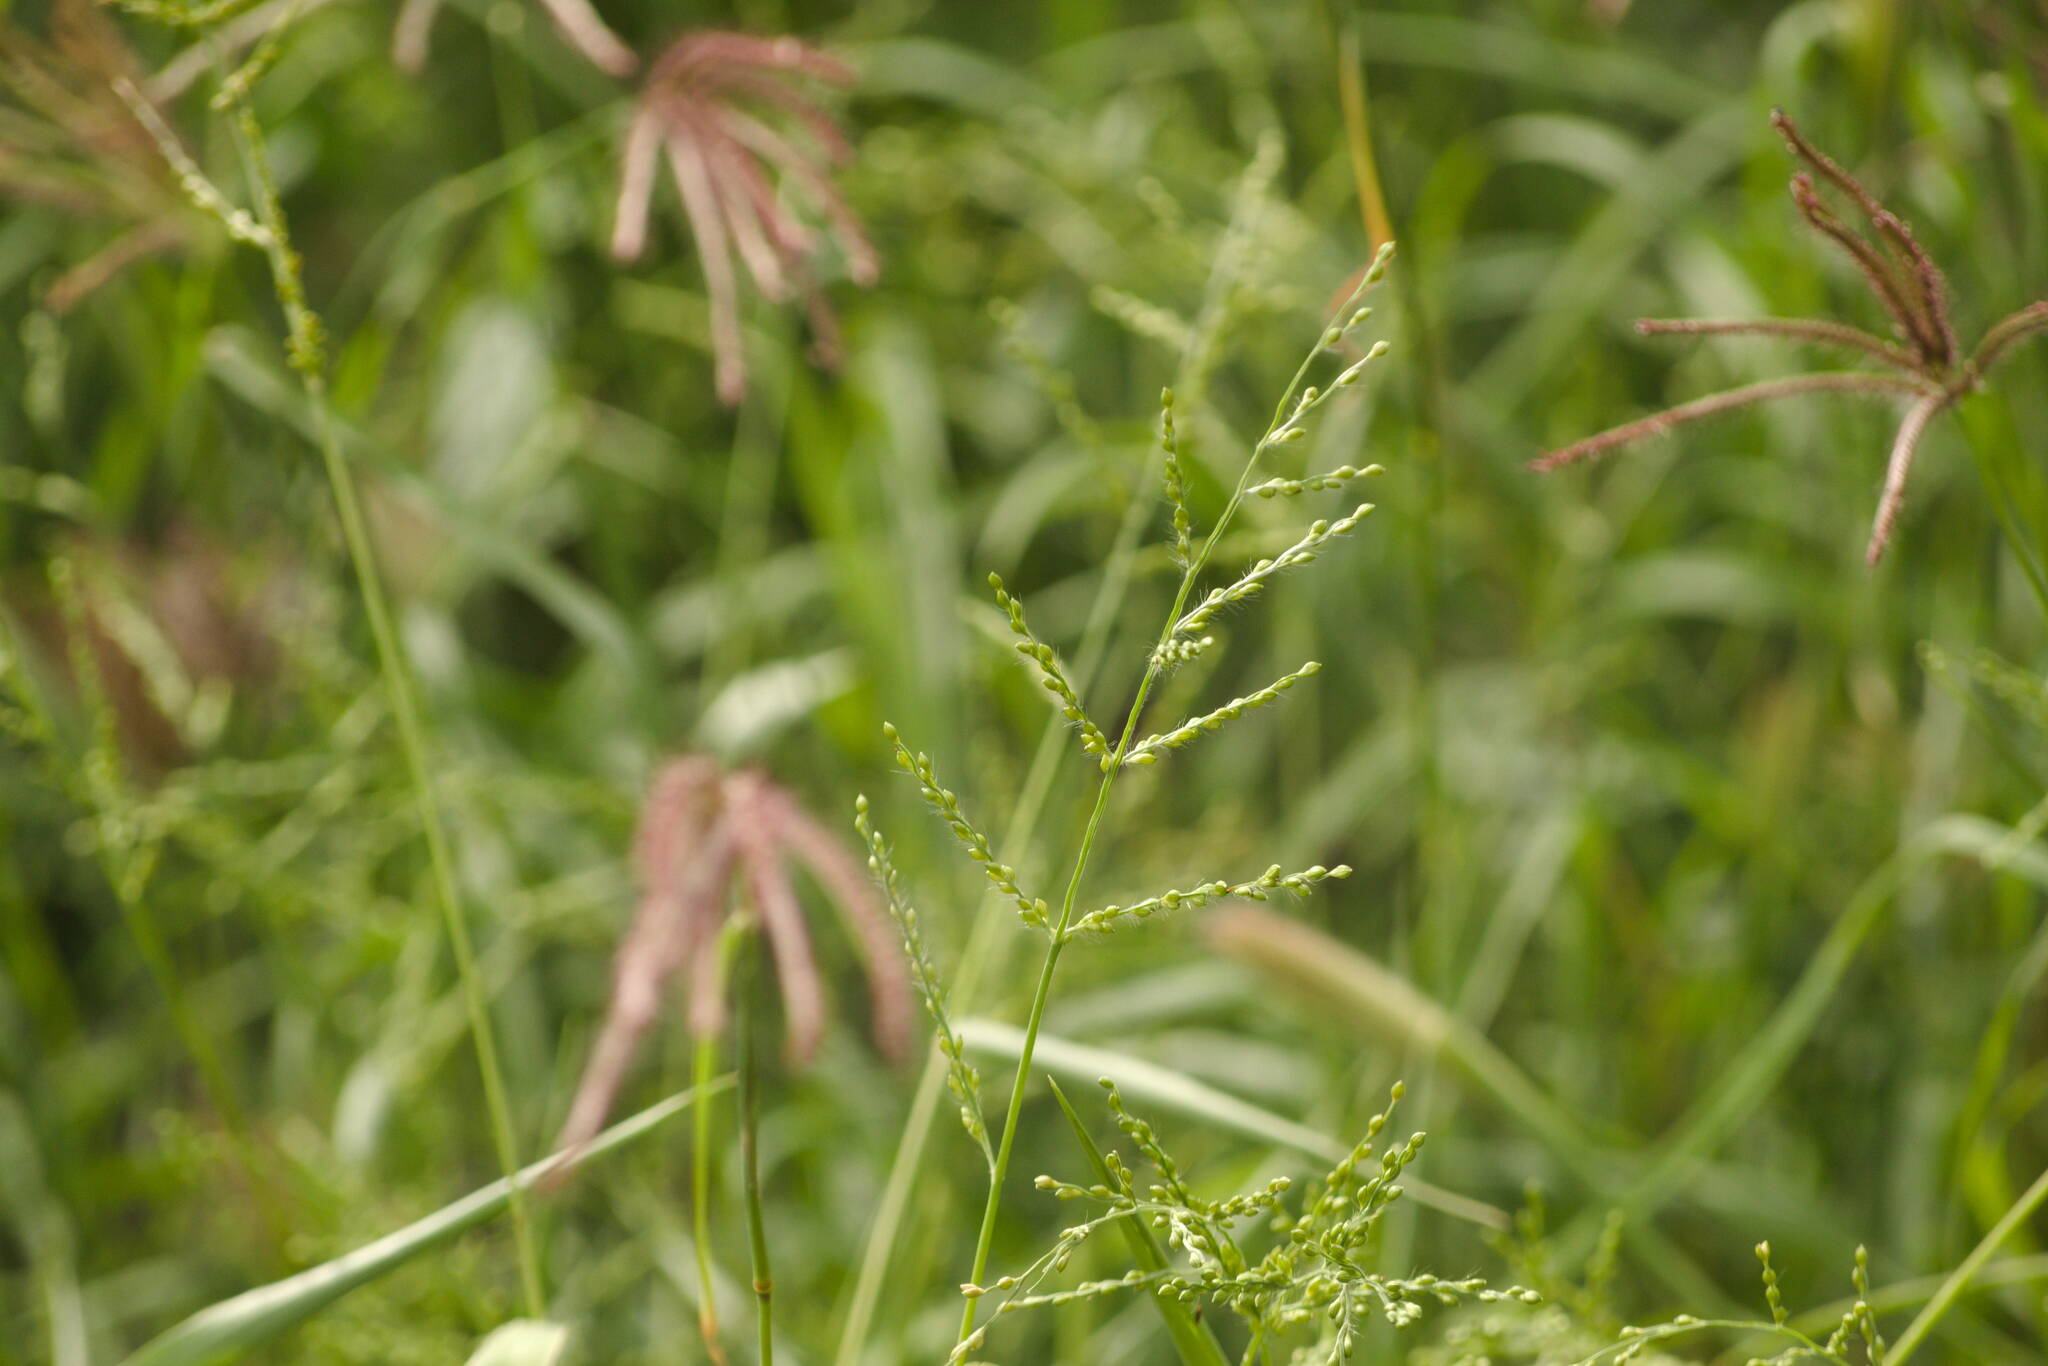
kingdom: Plantae
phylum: Tracheophyta
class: Liliopsida
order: Poales
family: Poaceae
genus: Urochloa
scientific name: Urochloa ramosa
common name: Browntop millet
